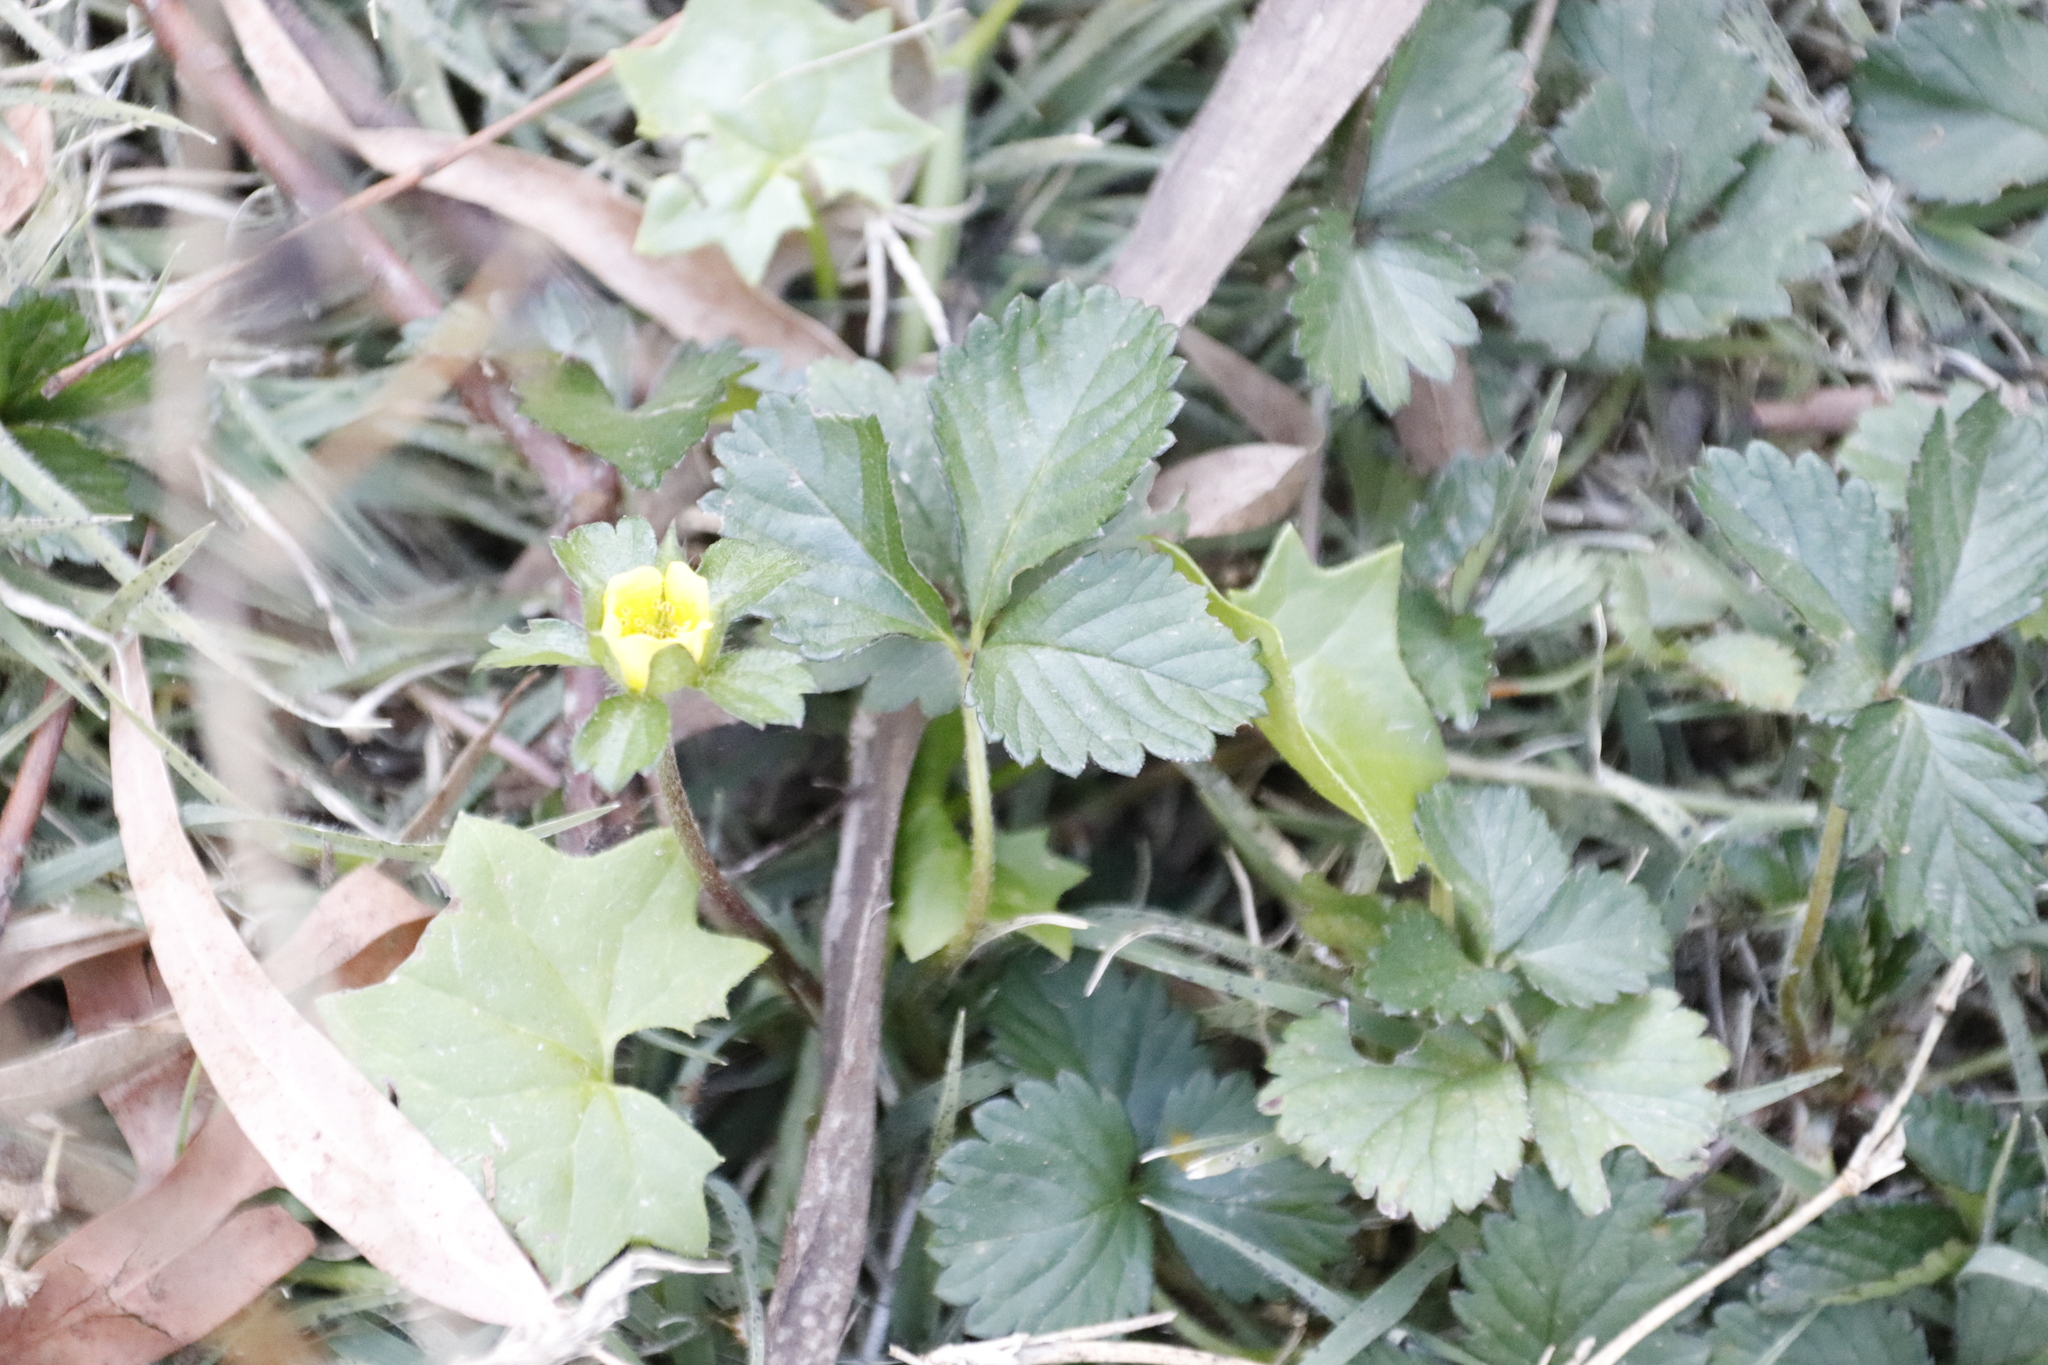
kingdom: Plantae
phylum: Tracheophyta
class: Magnoliopsida
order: Rosales
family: Rosaceae
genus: Potentilla
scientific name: Potentilla indica
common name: Yellow-flowered strawberry
